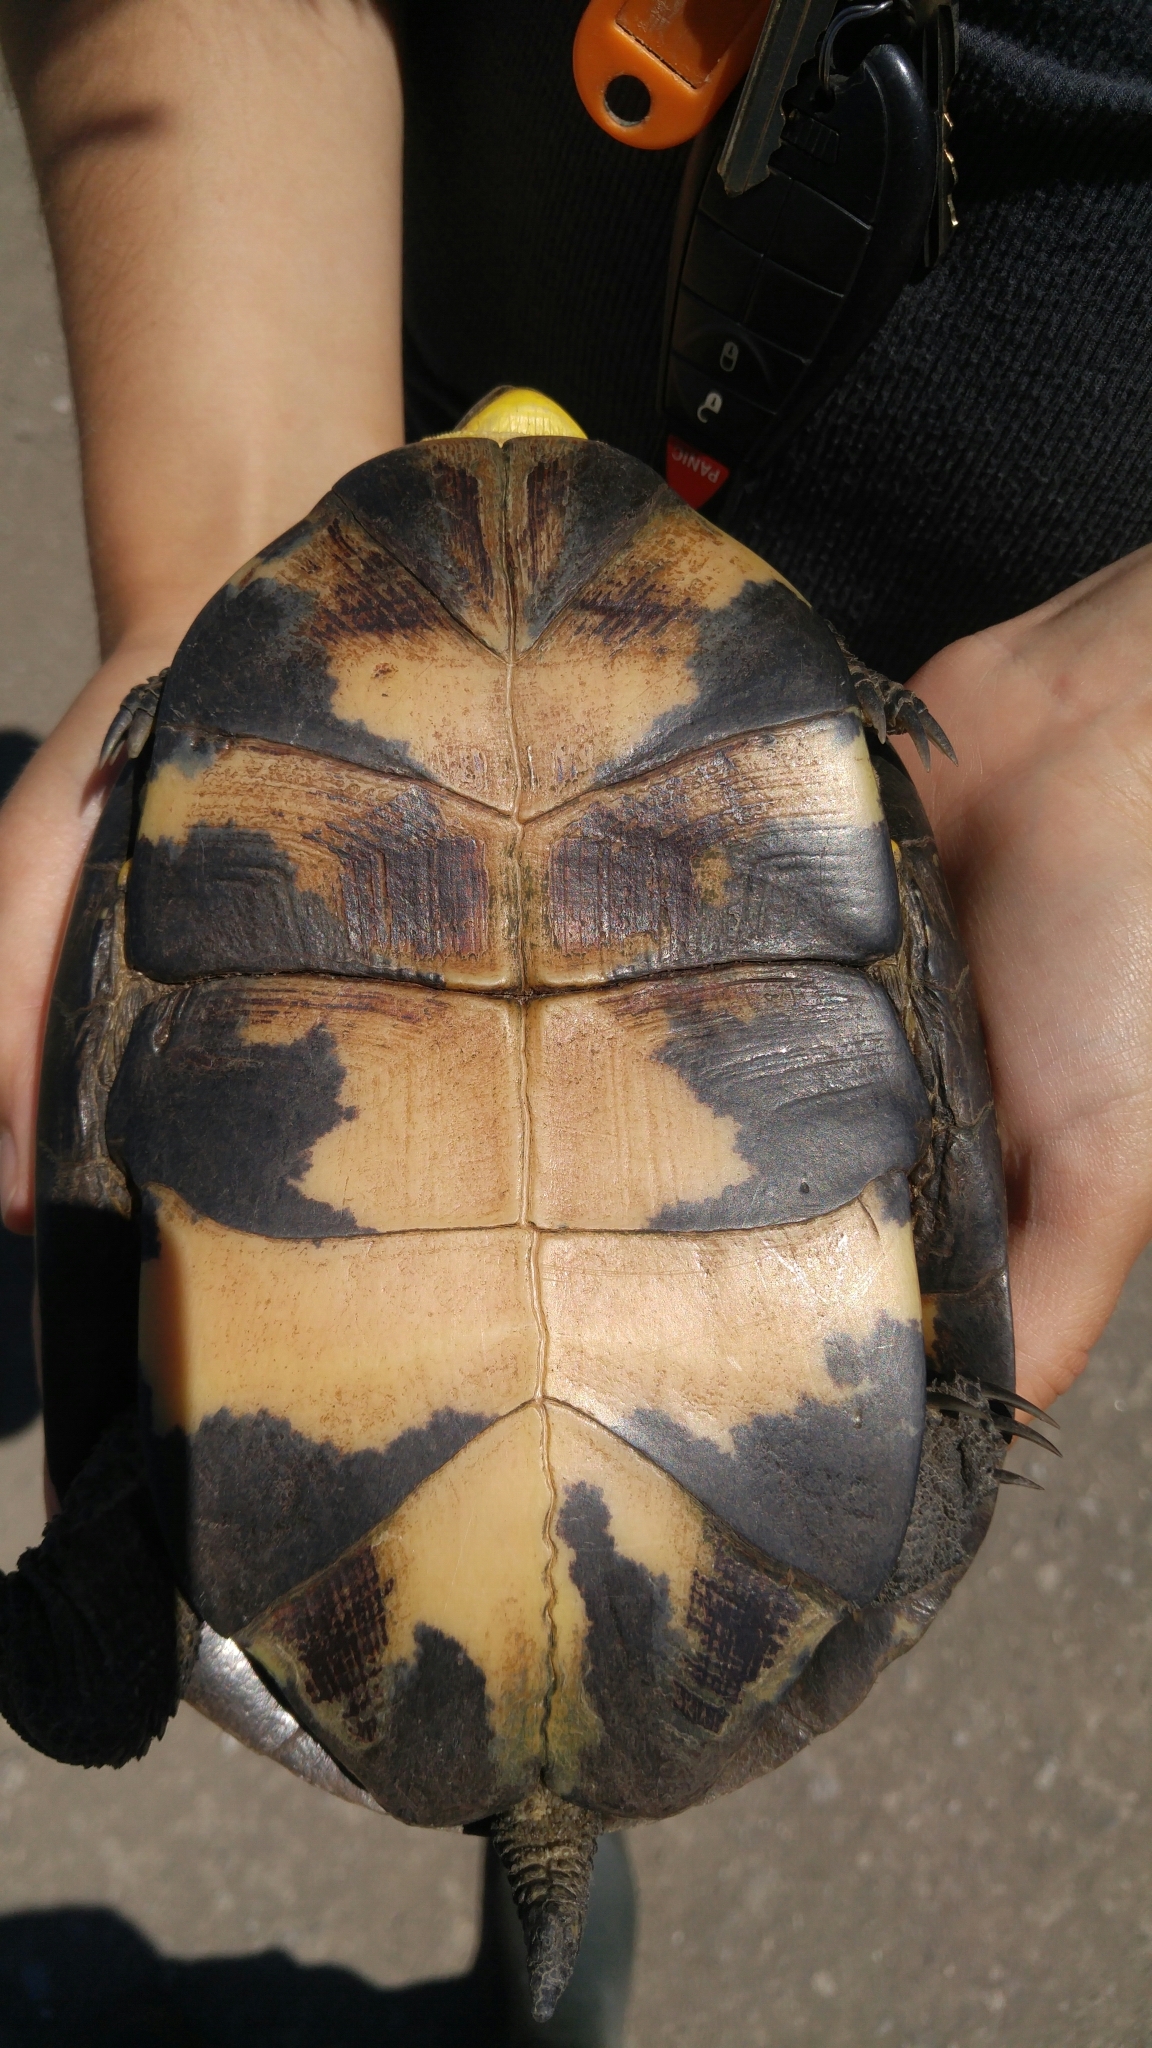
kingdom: Animalia
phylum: Chordata
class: Testudines
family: Emydidae
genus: Emys
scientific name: Emys blandingii
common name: Blanding's turtle
